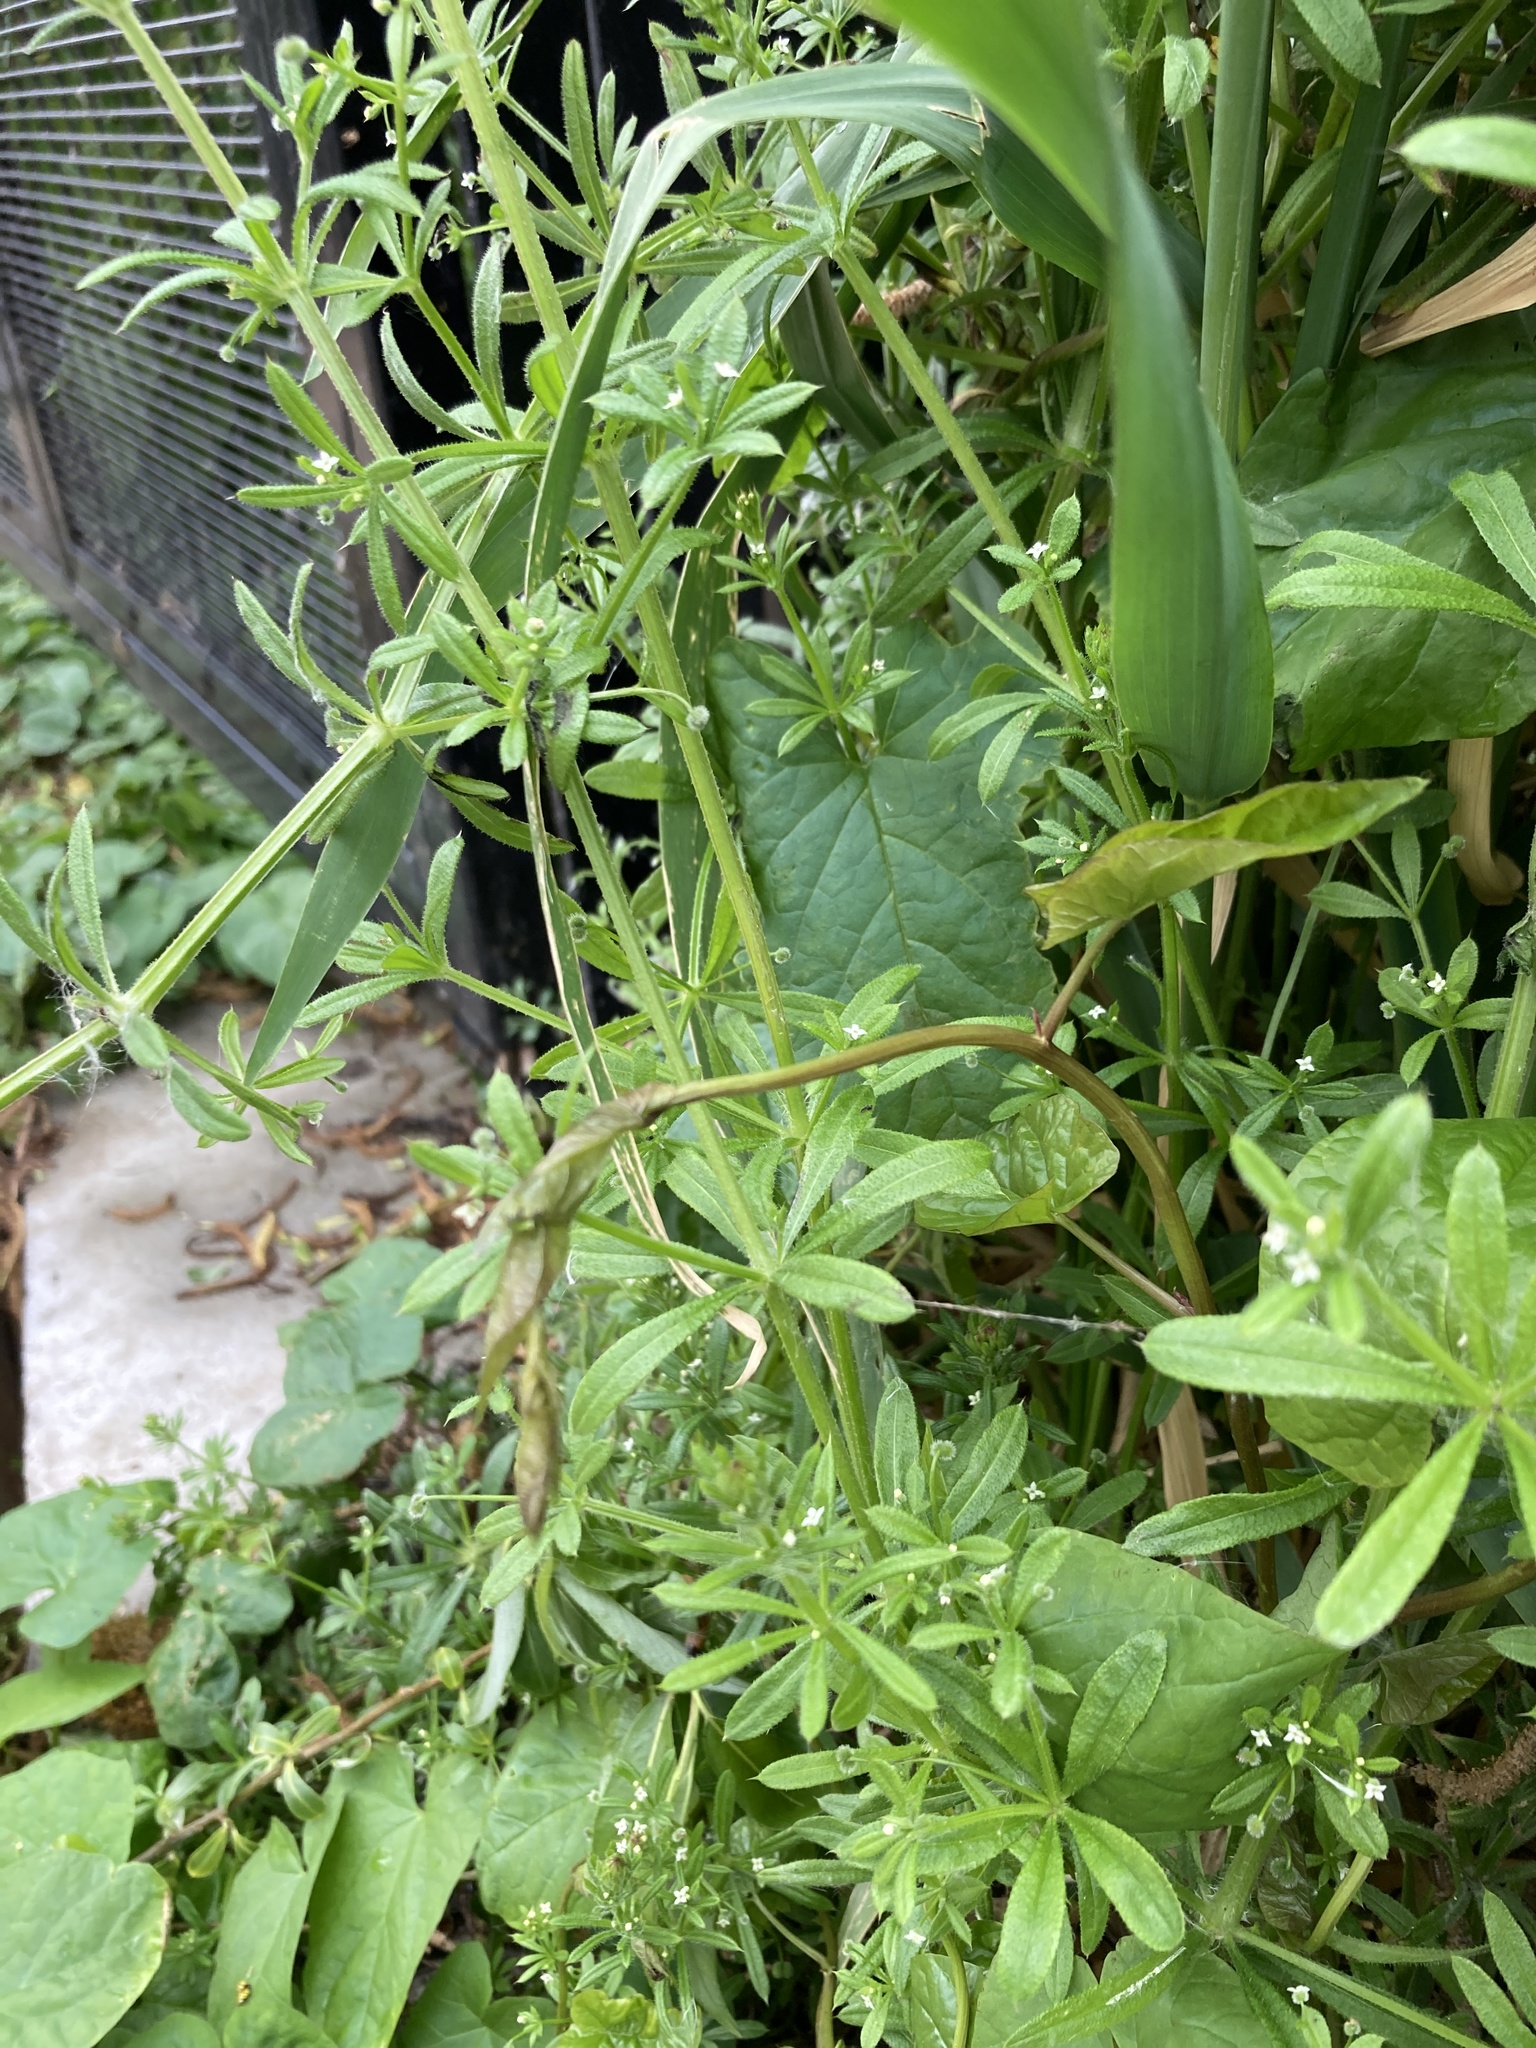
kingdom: Plantae
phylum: Tracheophyta
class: Magnoliopsida
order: Gentianales
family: Rubiaceae
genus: Galium
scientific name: Galium aparine
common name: Cleavers
